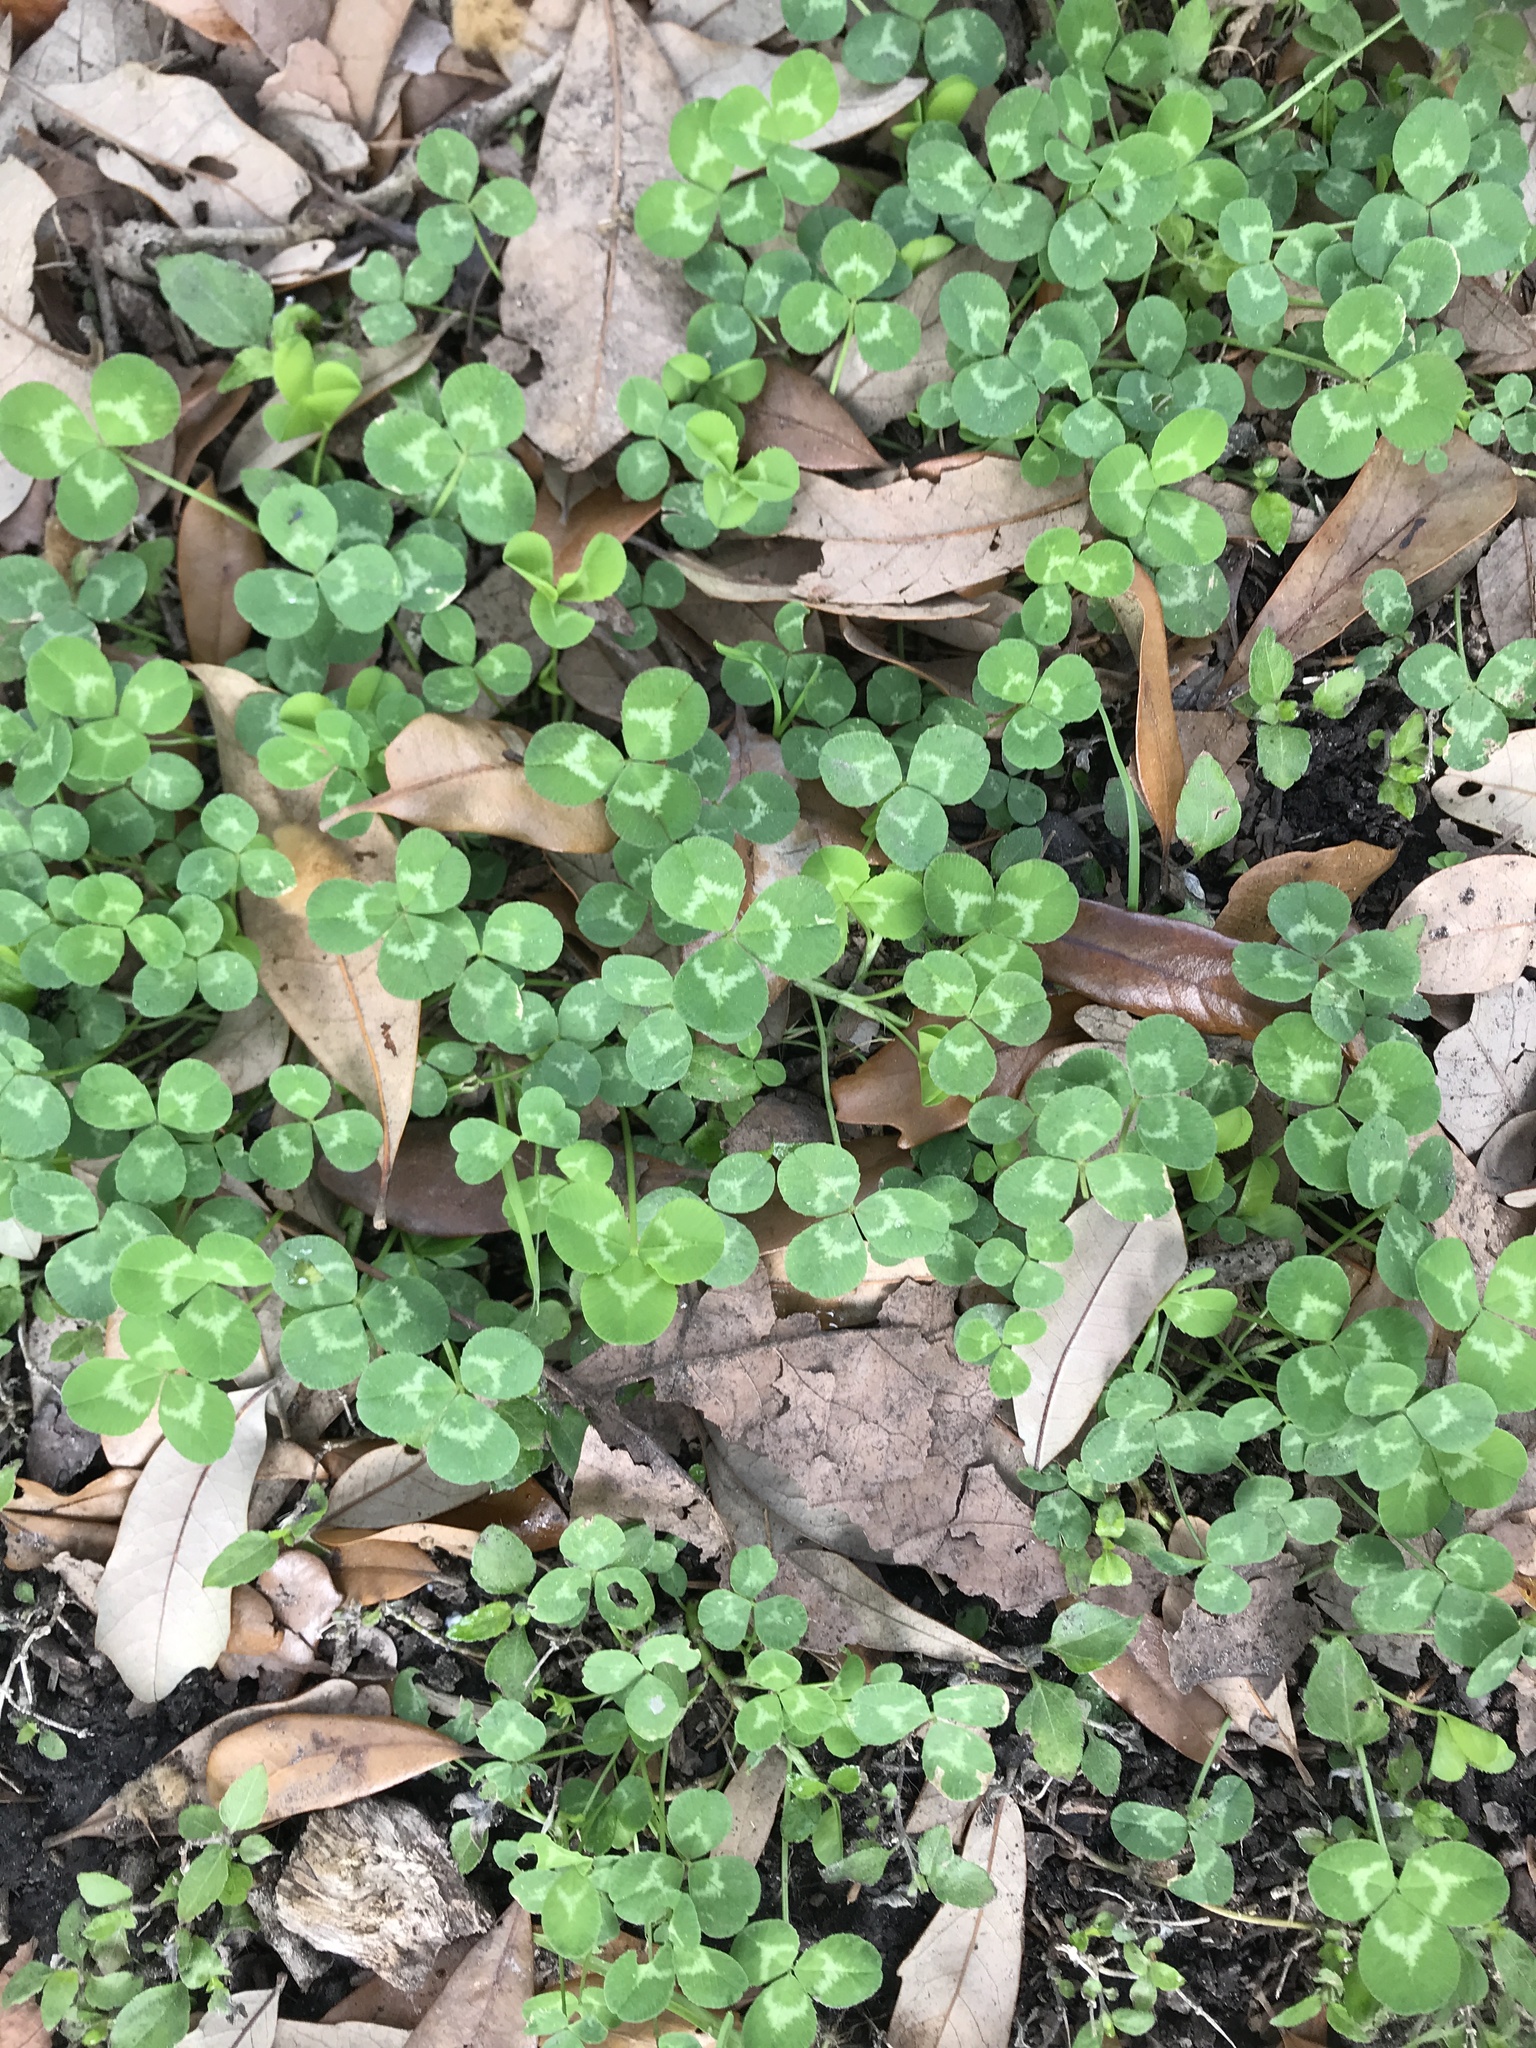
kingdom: Plantae
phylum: Tracheophyta
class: Magnoliopsida
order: Fabales
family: Fabaceae
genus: Trifolium
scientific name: Trifolium repens
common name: White clover
